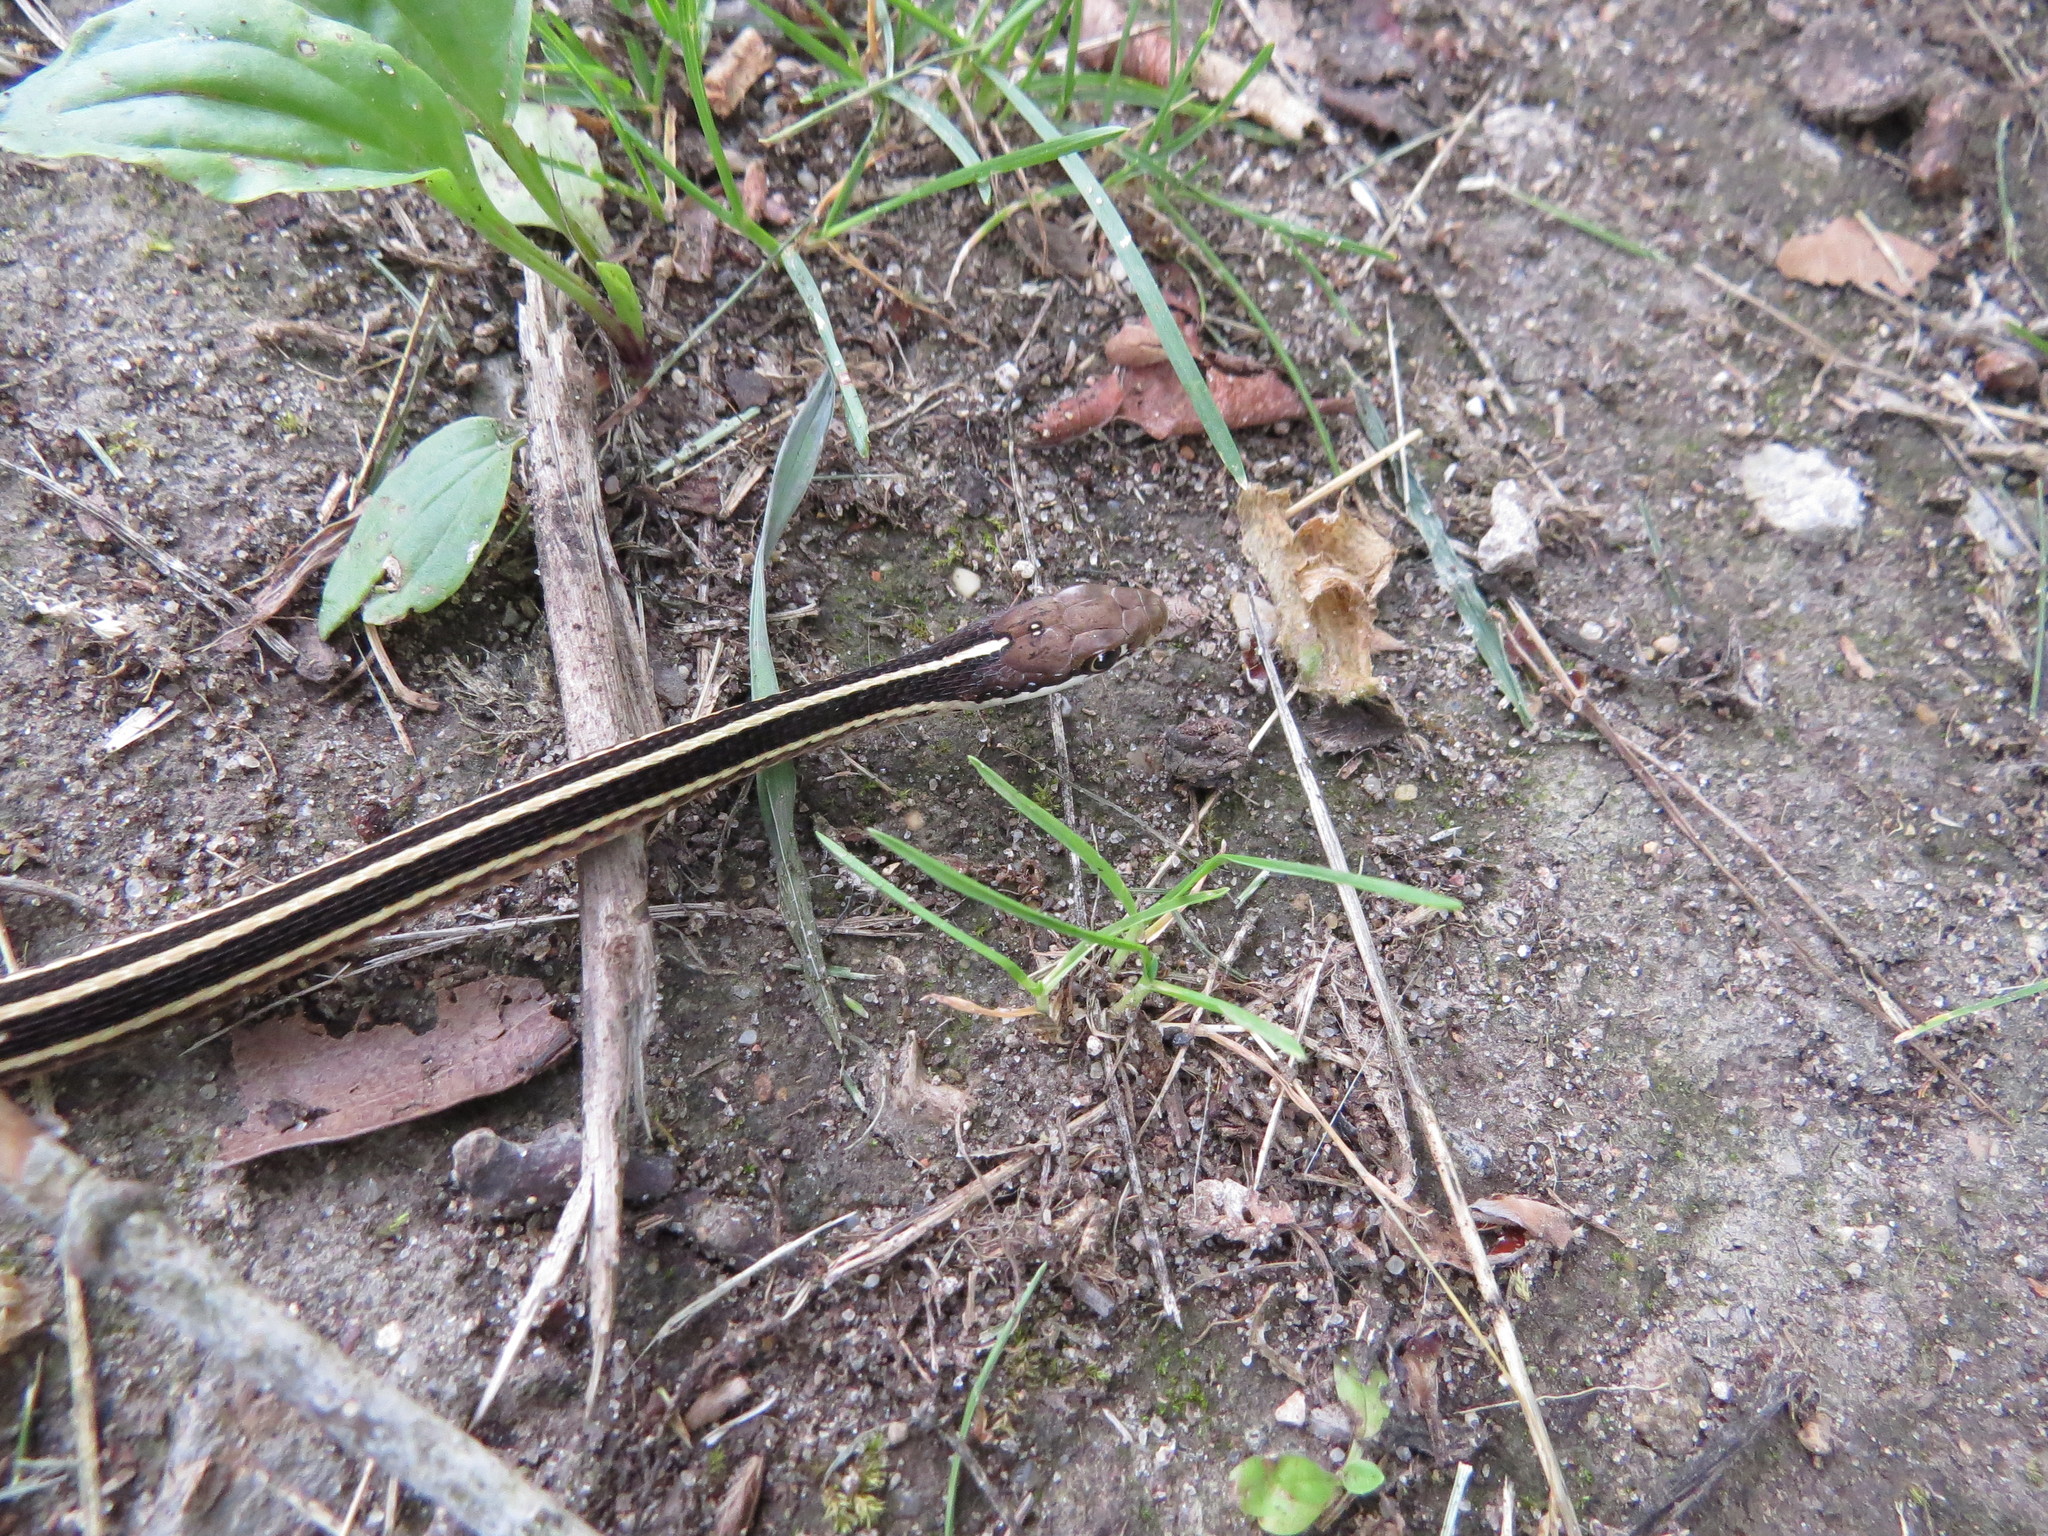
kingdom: Animalia
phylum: Chordata
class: Squamata
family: Colubridae
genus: Thamnophis
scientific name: Thamnophis saurita
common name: Eastern ribbonsnake
